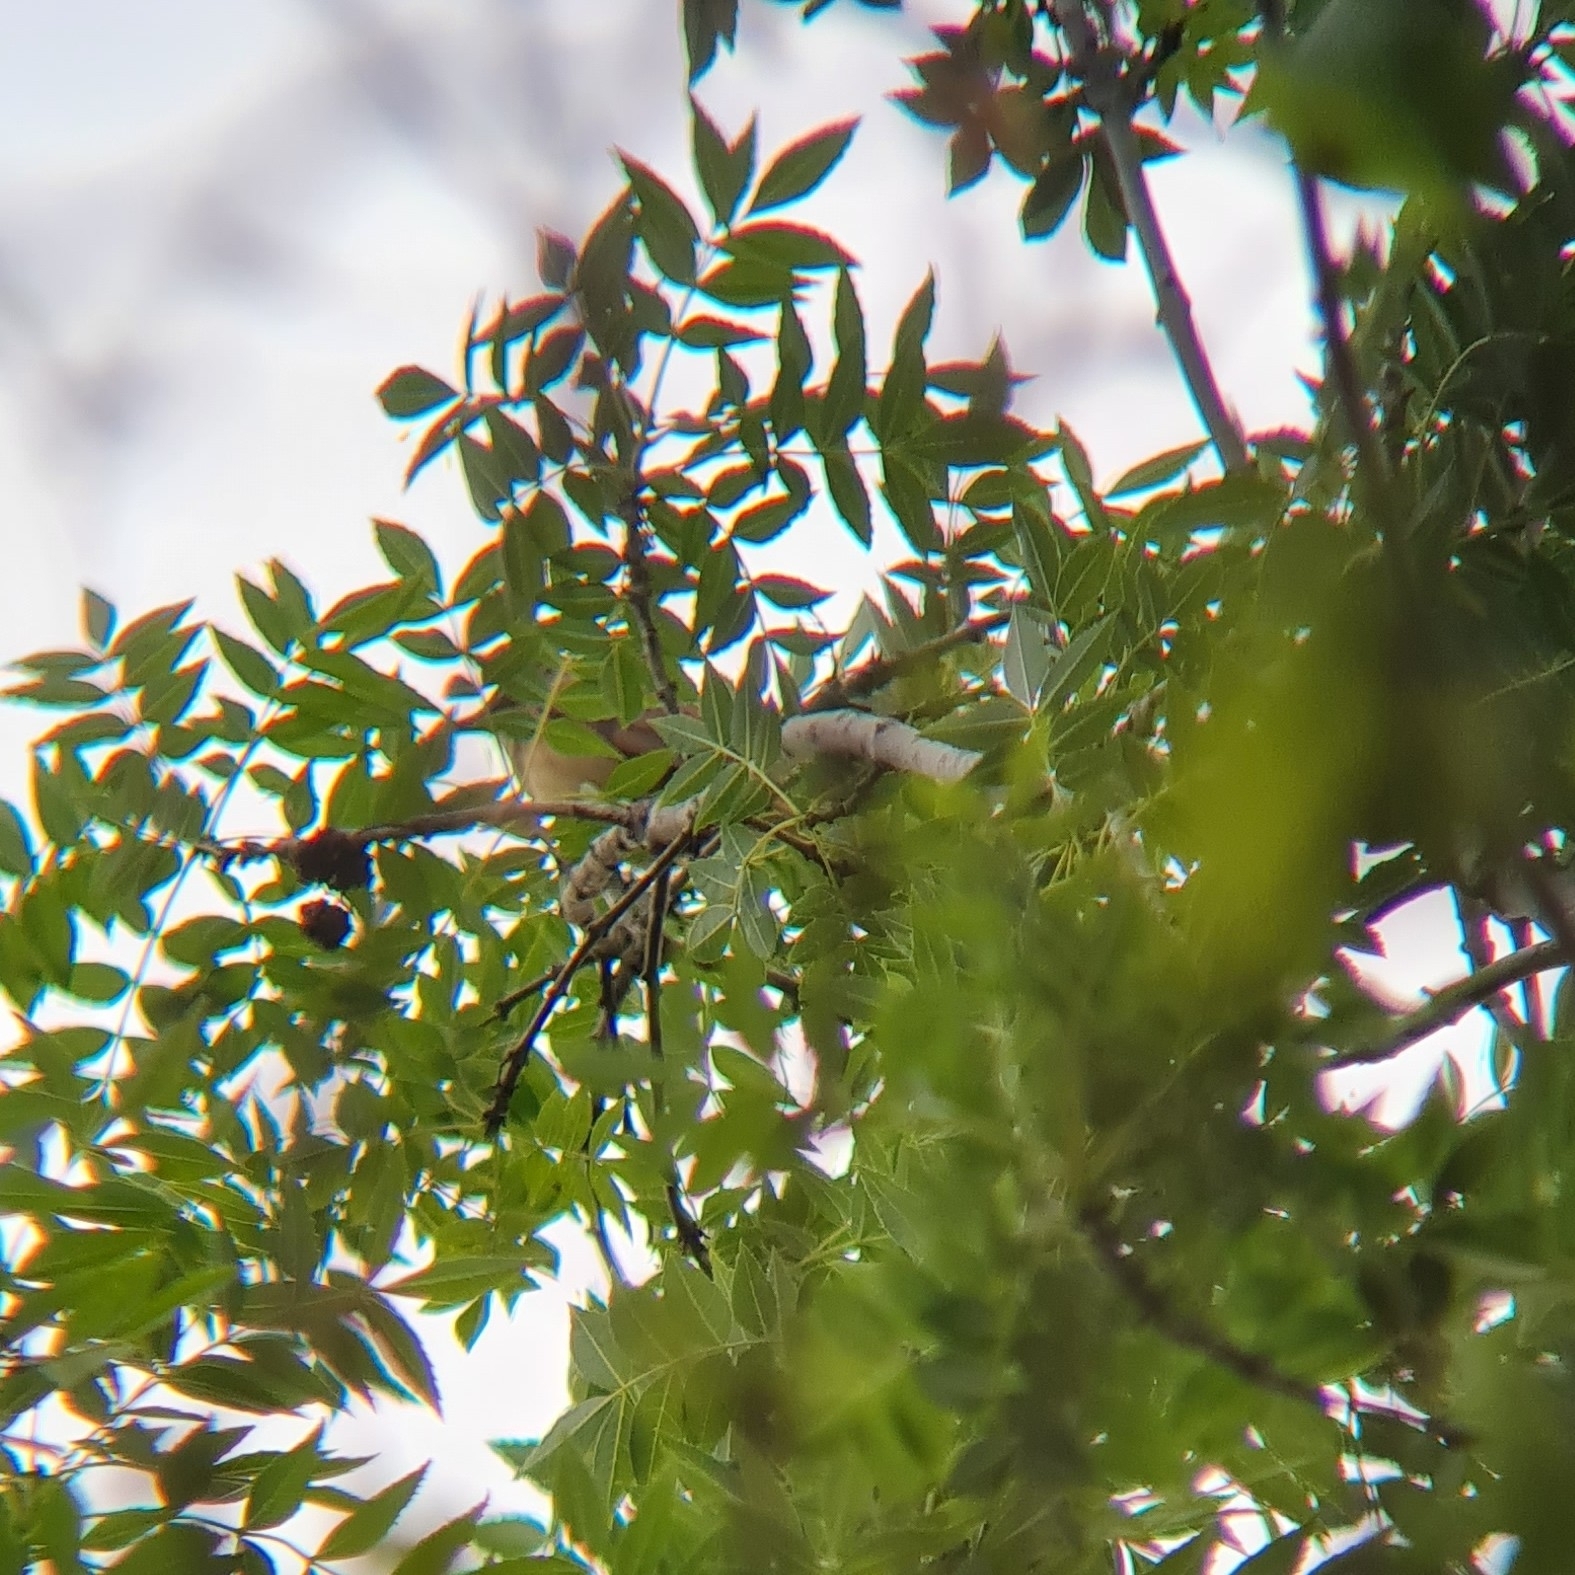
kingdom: Animalia
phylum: Chordata
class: Aves
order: Passeriformes
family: Acrocephalidae
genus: Acrocephalus
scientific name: Acrocephalus arundinaceus
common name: Great reed warbler
